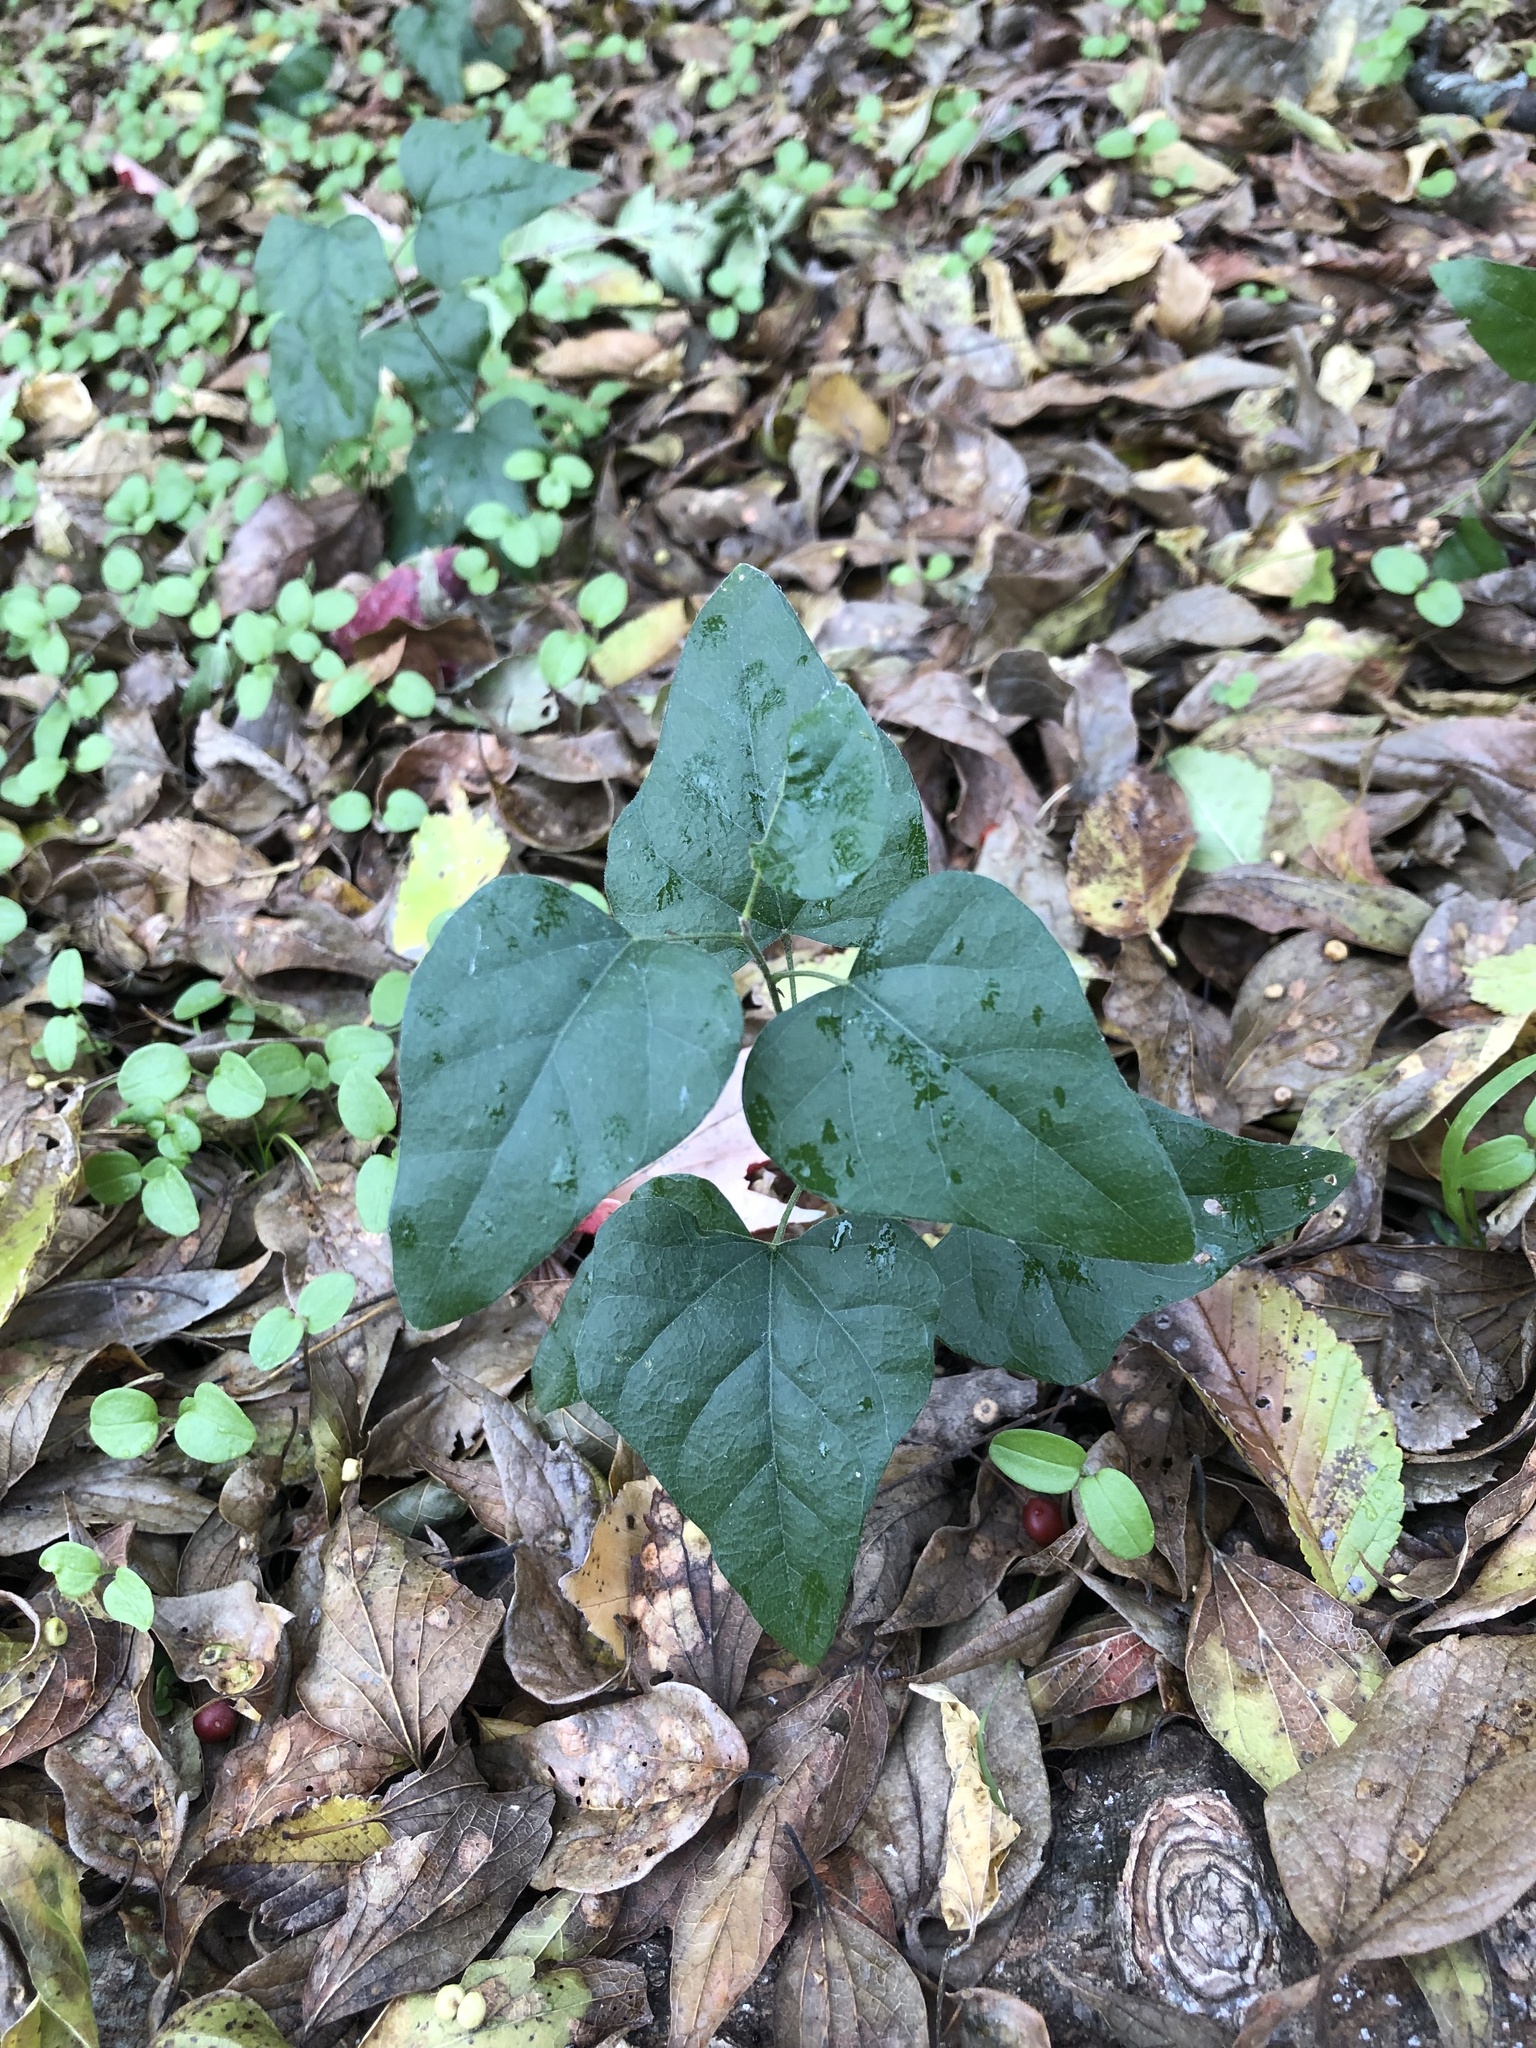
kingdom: Plantae
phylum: Tracheophyta
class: Magnoliopsida
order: Ranunculales
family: Menispermaceae
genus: Cocculus
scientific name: Cocculus carolinus
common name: Carolina moonseed
